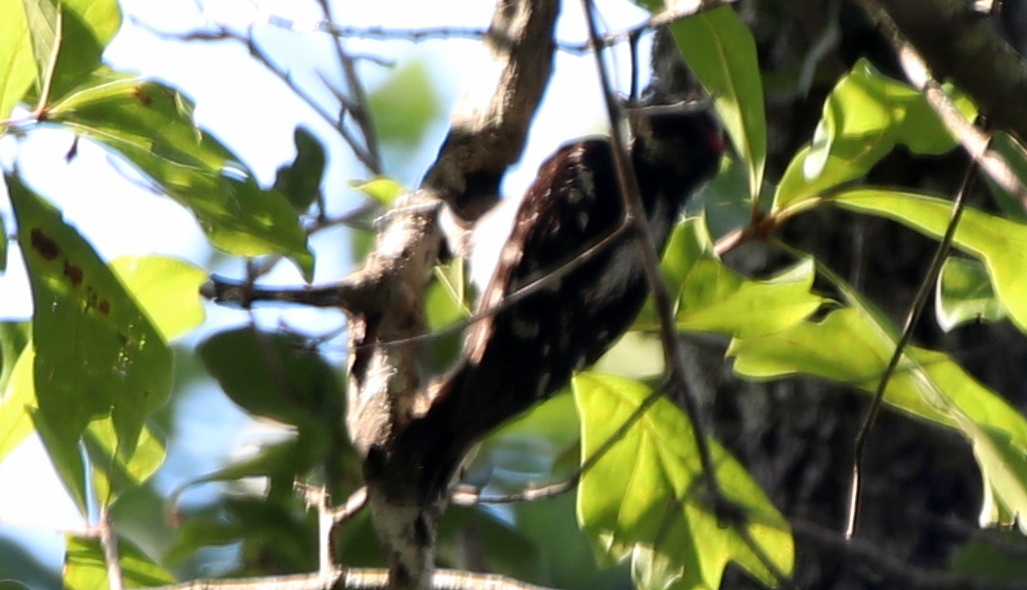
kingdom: Animalia
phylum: Chordata
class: Aves
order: Piciformes
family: Picidae
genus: Dryobates
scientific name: Dryobates pubescens
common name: Downy woodpecker
